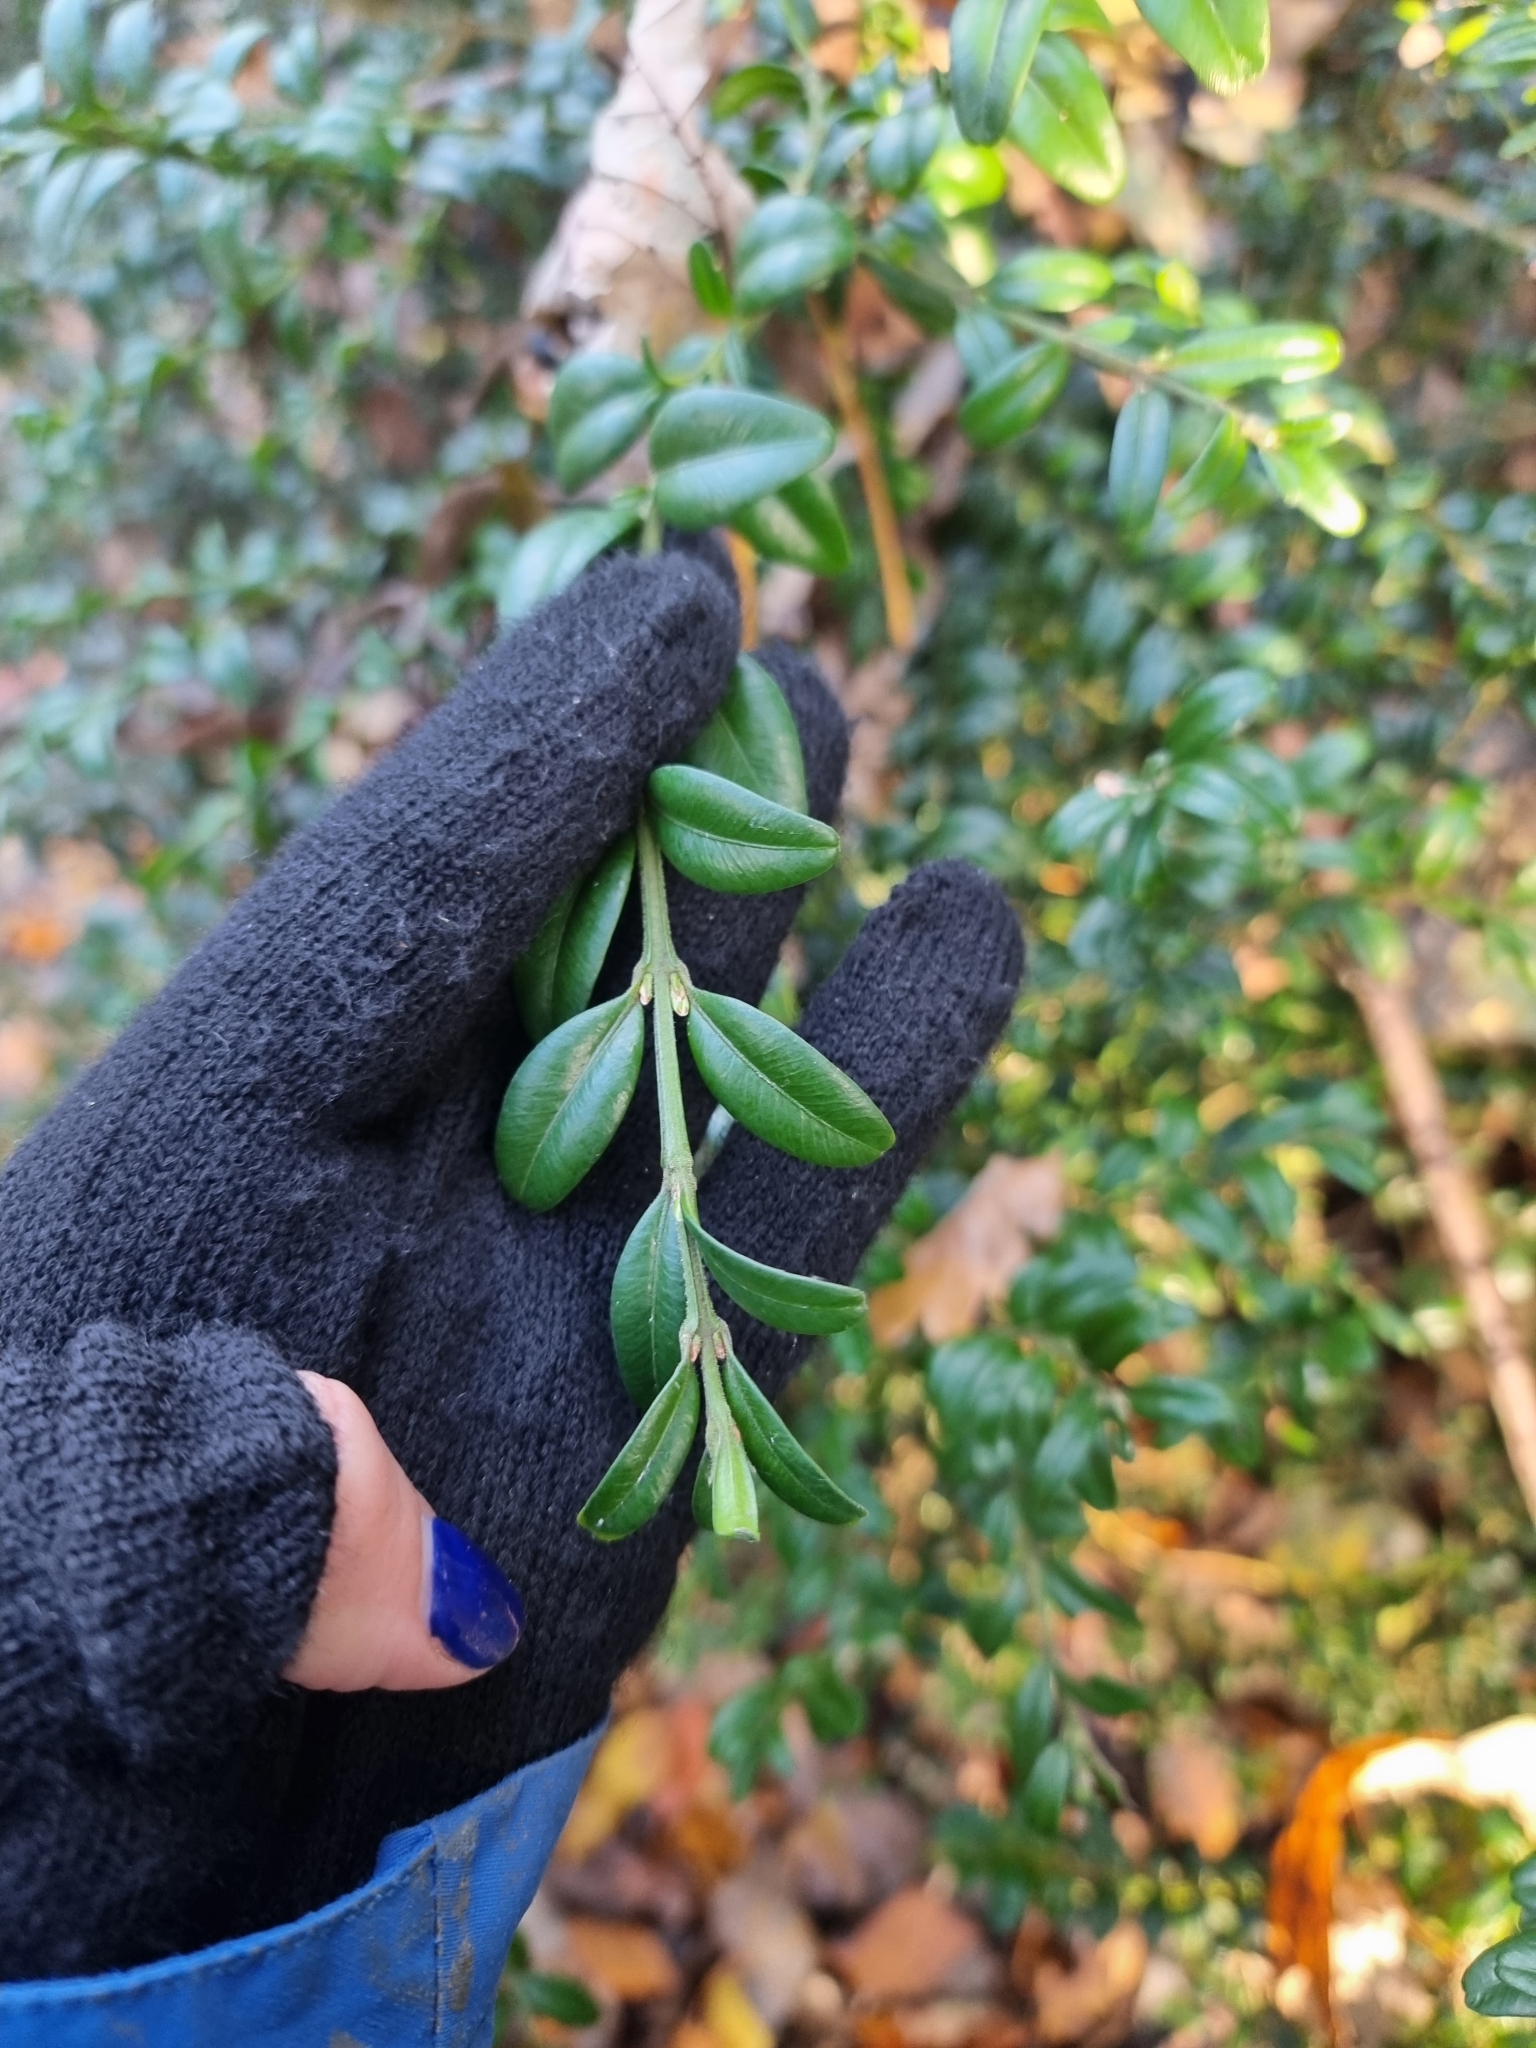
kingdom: Plantae
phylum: Tracheophyta
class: Magnoliopsida
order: Buxales
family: Buxaceae
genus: Buxus
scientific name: Buxus sempervirens
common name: Box
